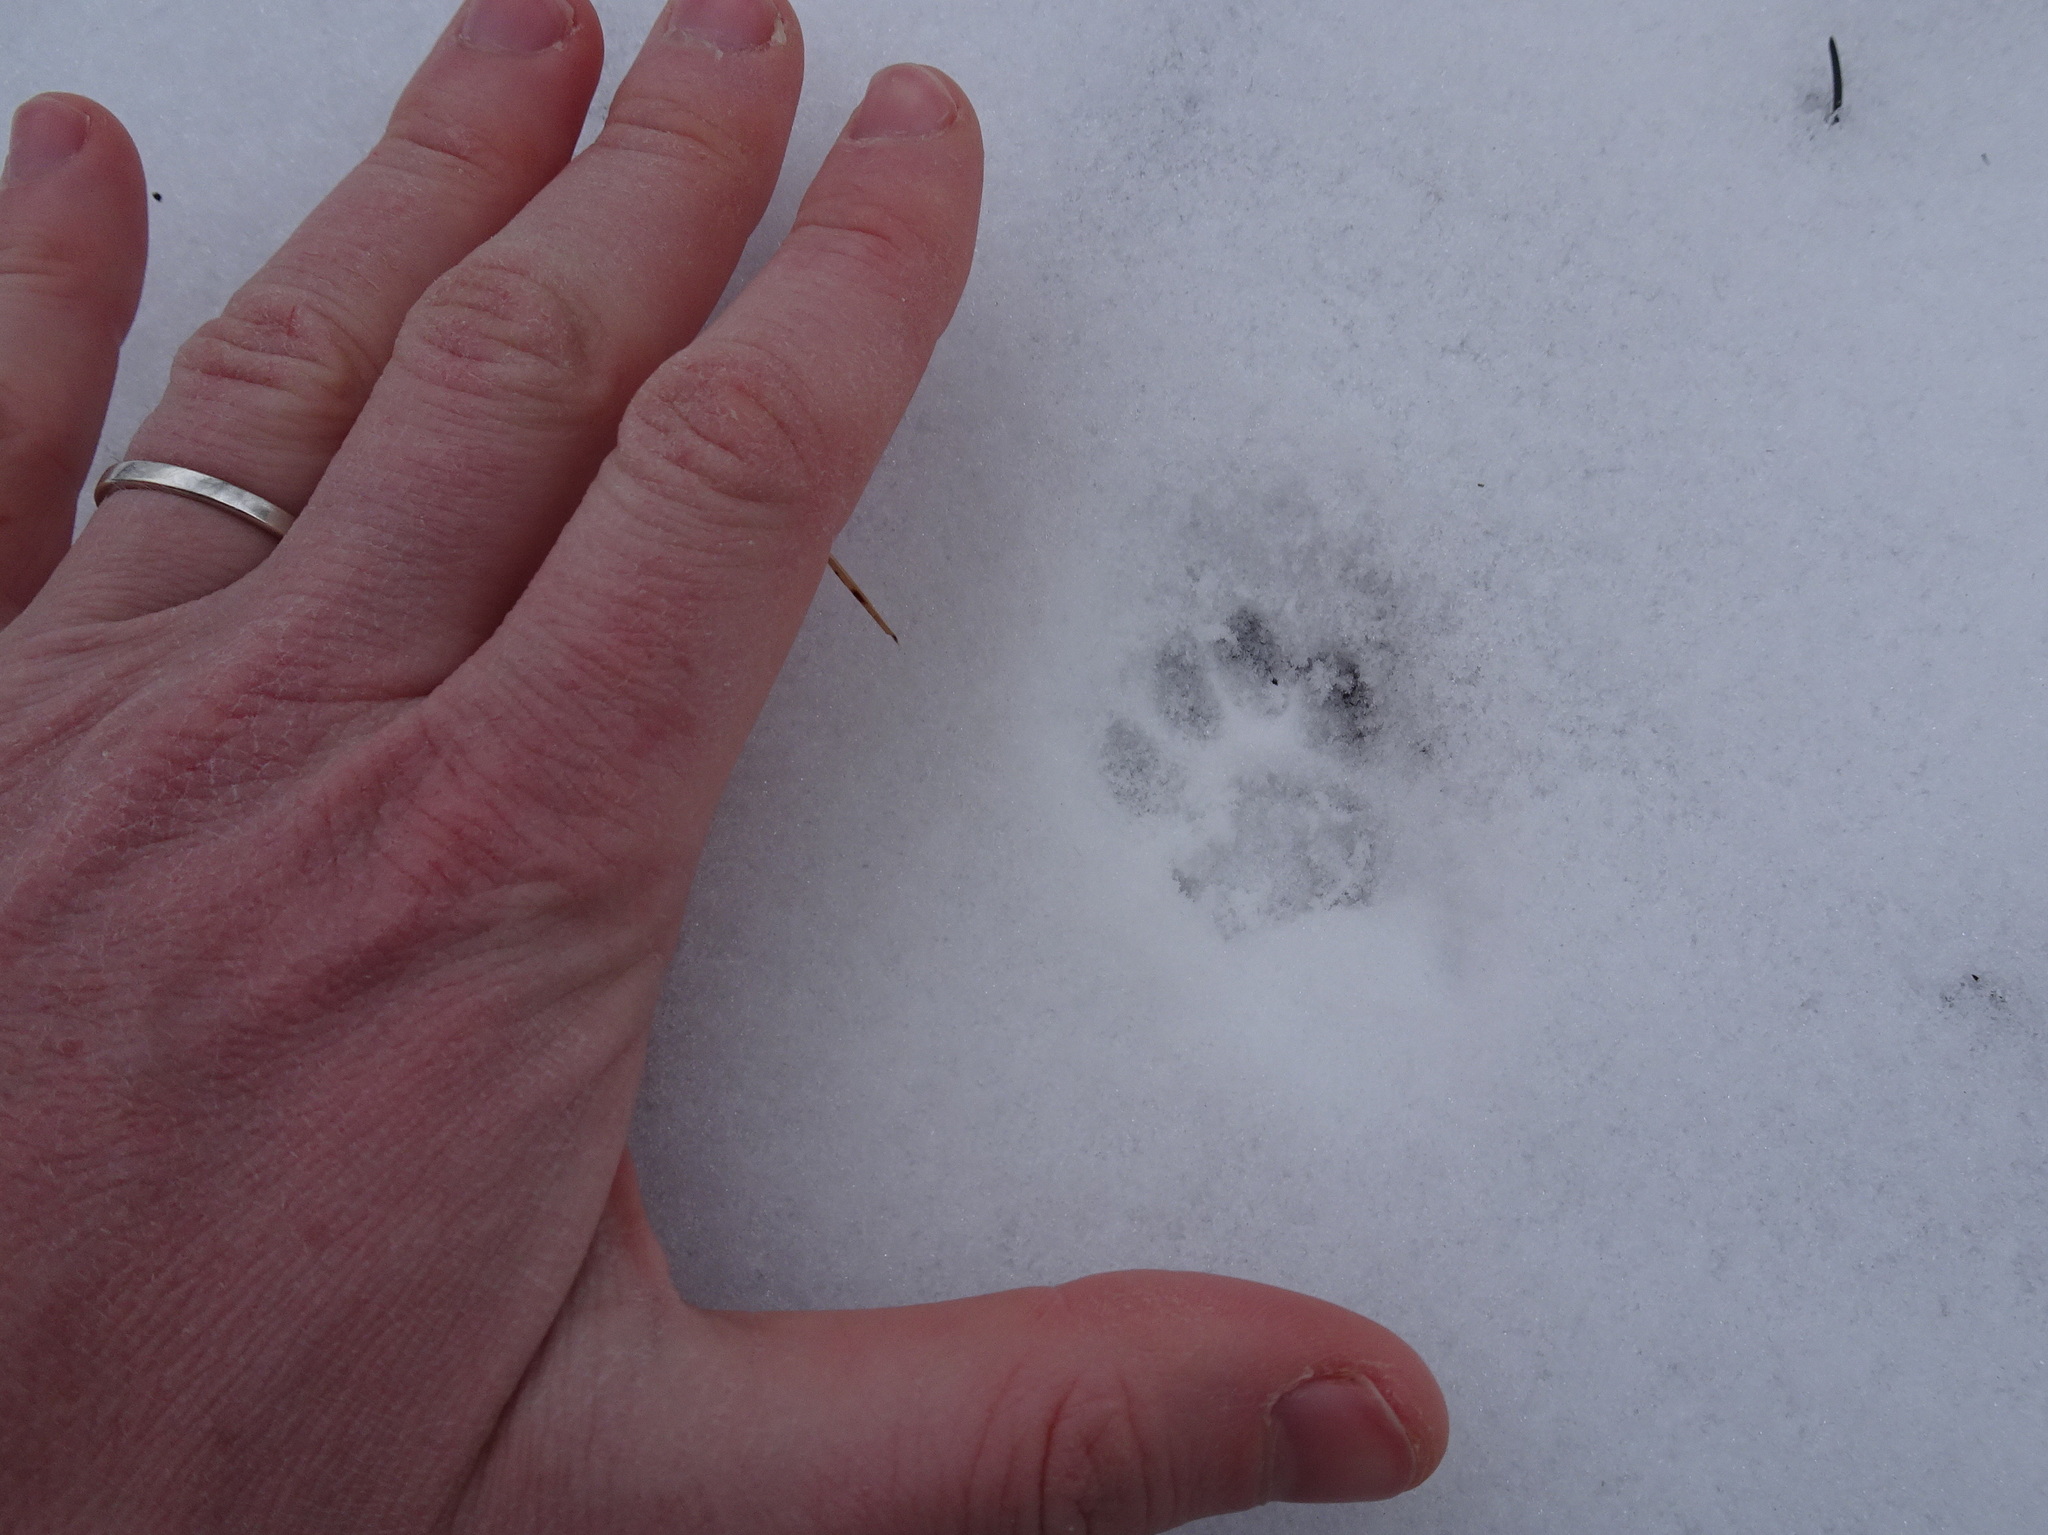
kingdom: Animalia
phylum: Chordata
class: Mammalia
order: Carnivora
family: Felidae
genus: Felis
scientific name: Felis catus
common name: Domestic cat
